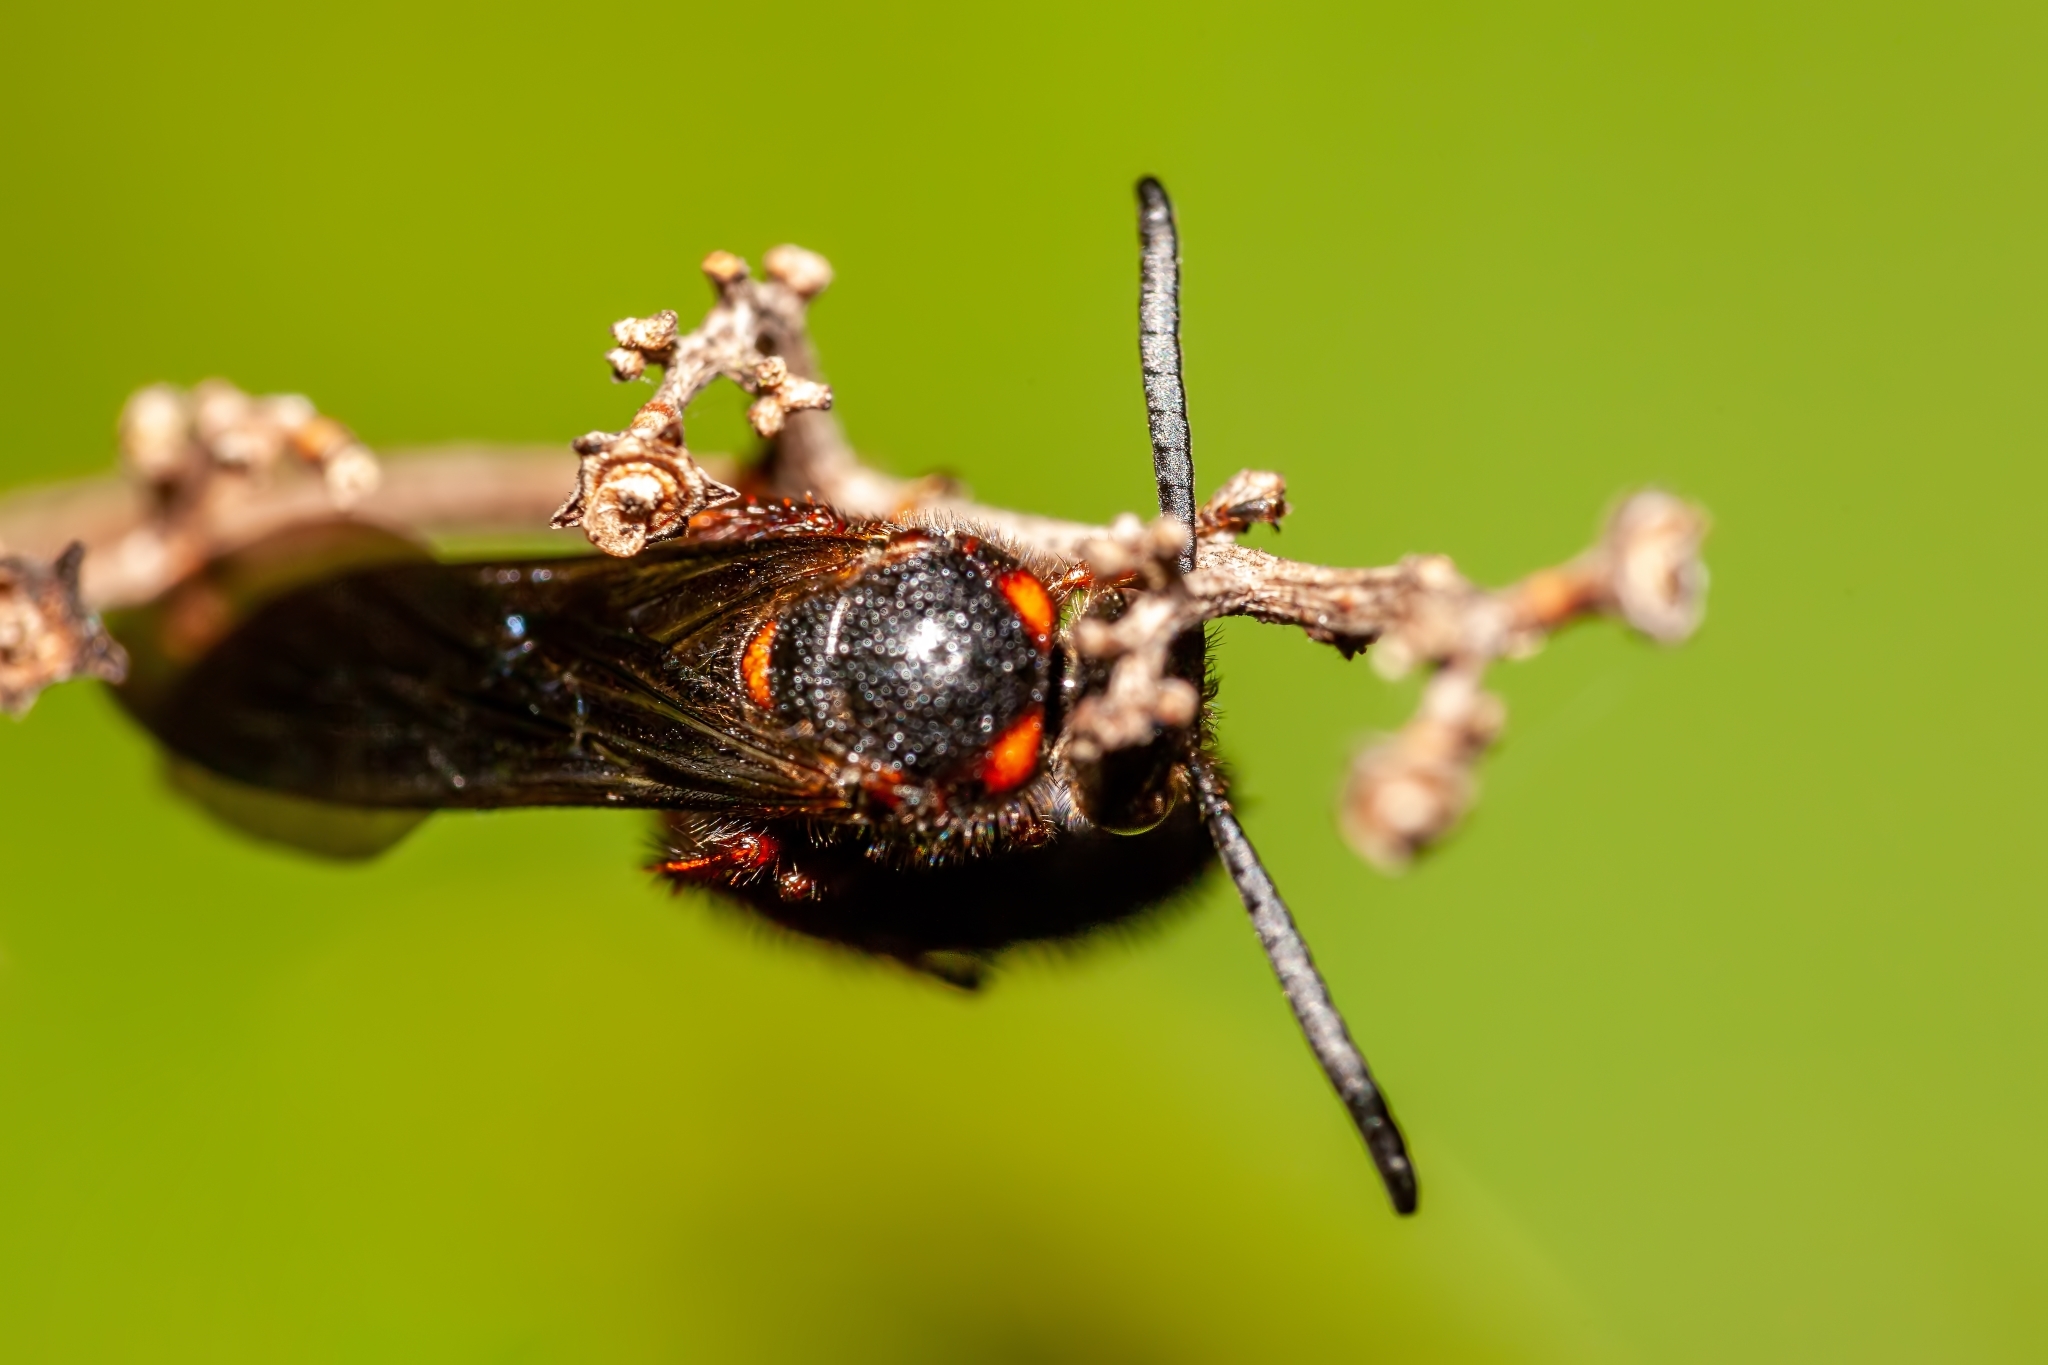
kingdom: Animalia
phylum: Arthropoda
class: Insecta
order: Hymenoptera
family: Scoliidae
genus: Scolia
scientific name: Scolia nobilitata
